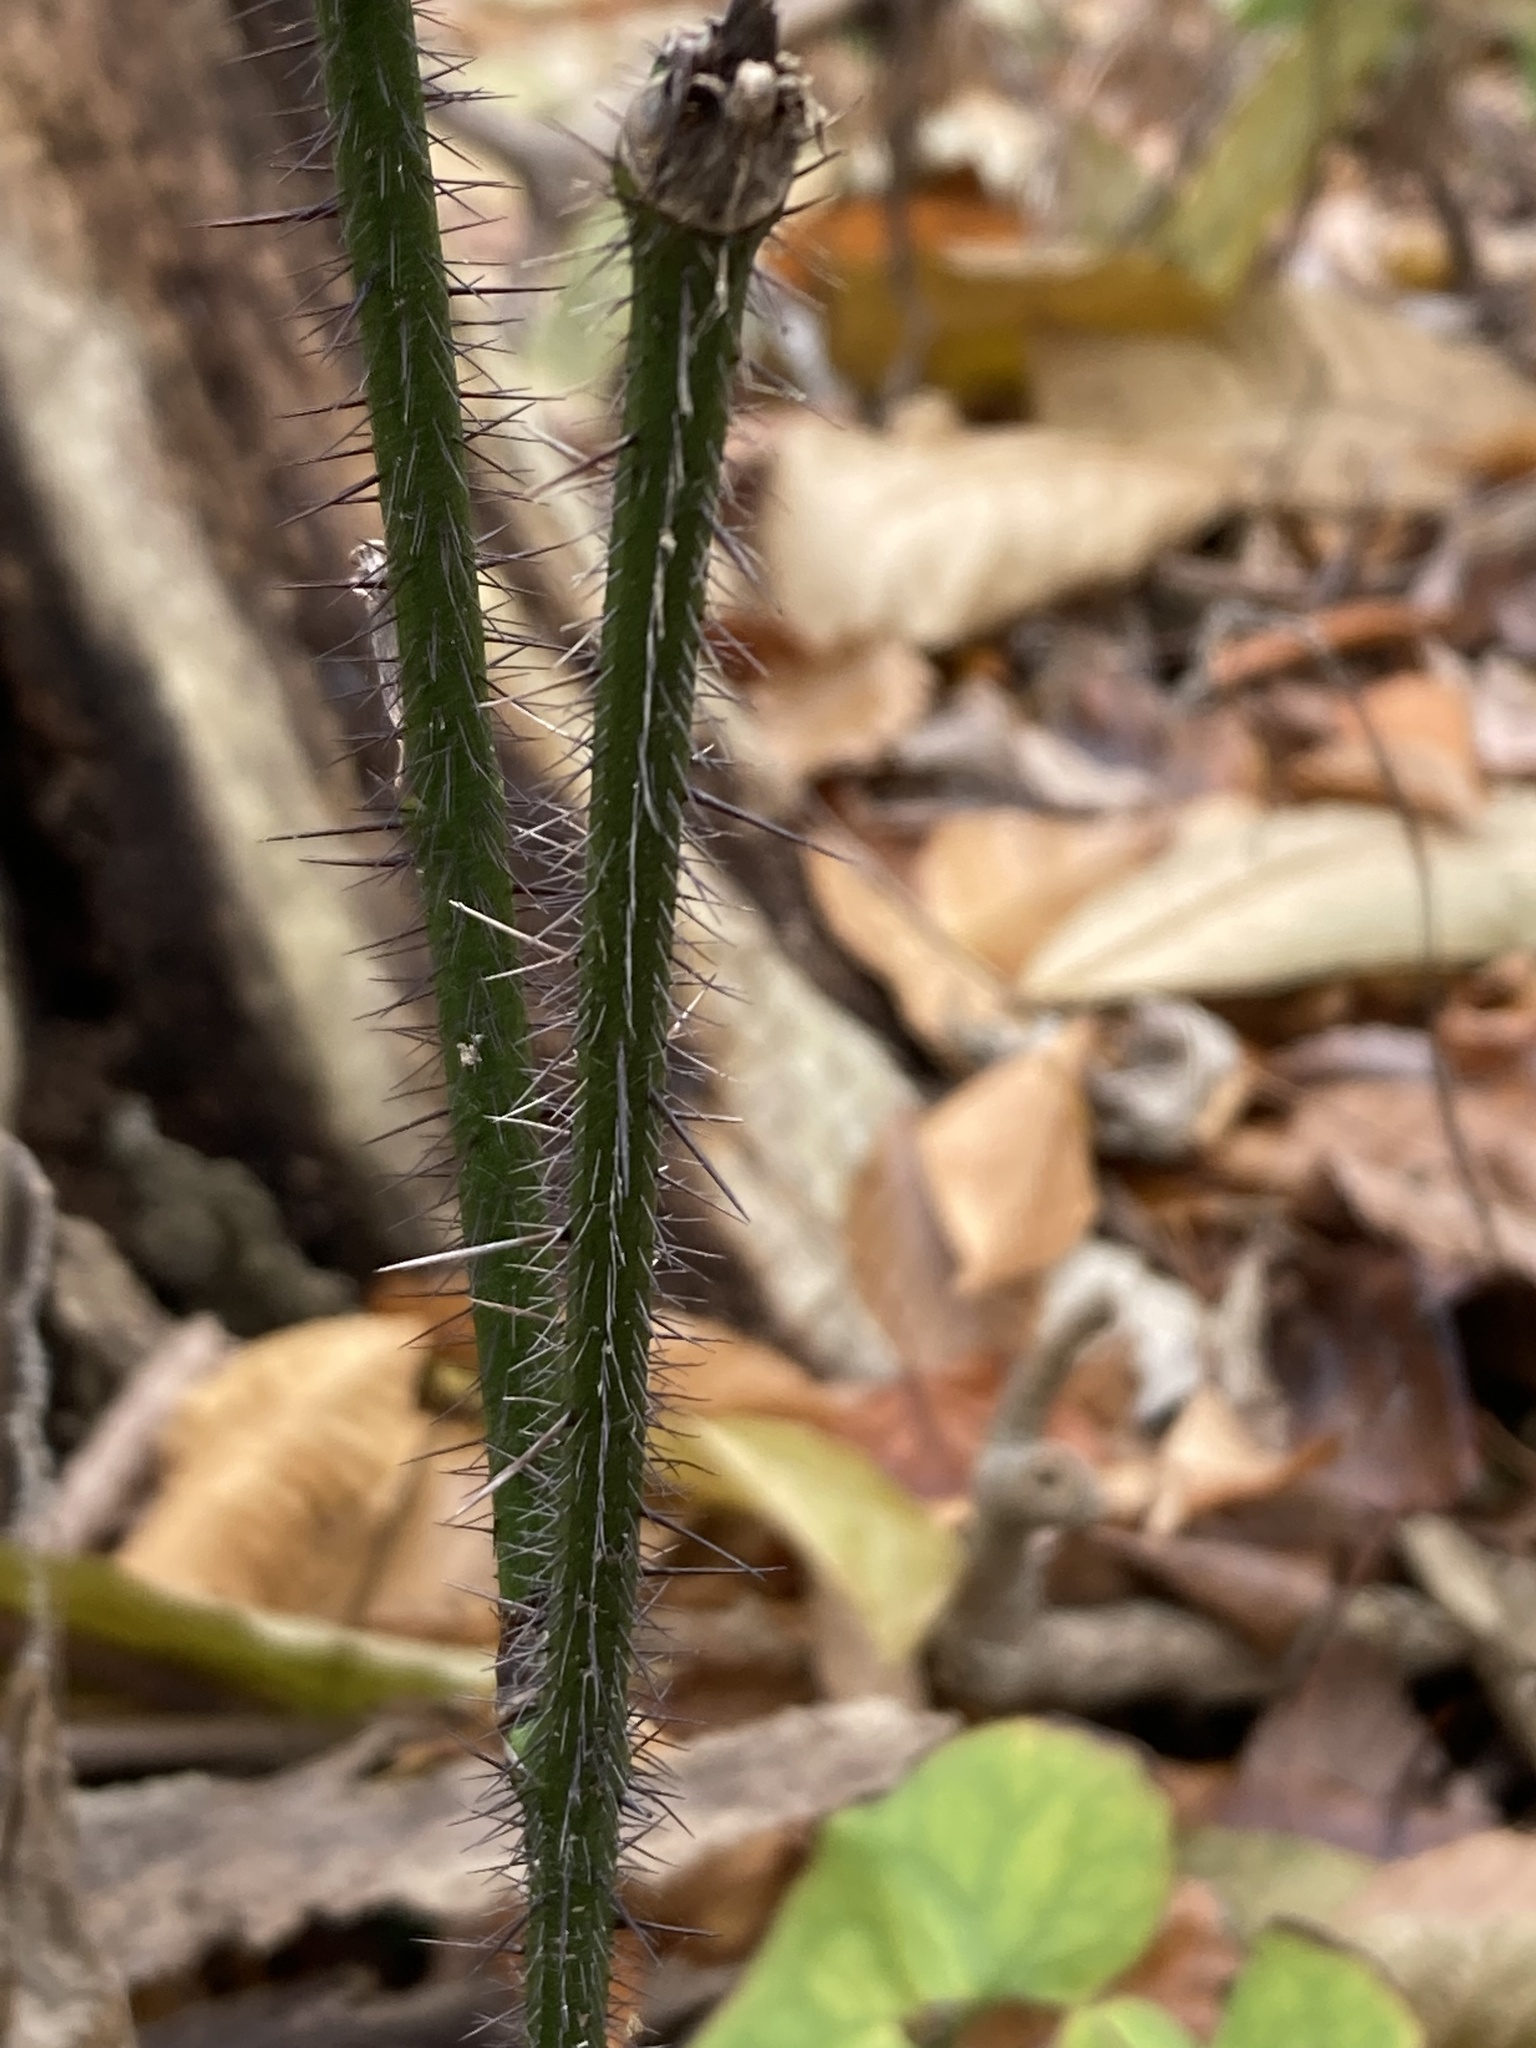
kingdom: Plantae
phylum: Tracheophyta
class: Liliopsida
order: Liliales
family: Smilacaceae
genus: Smilax
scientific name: Smilax tamnoides
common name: Hellfetter
